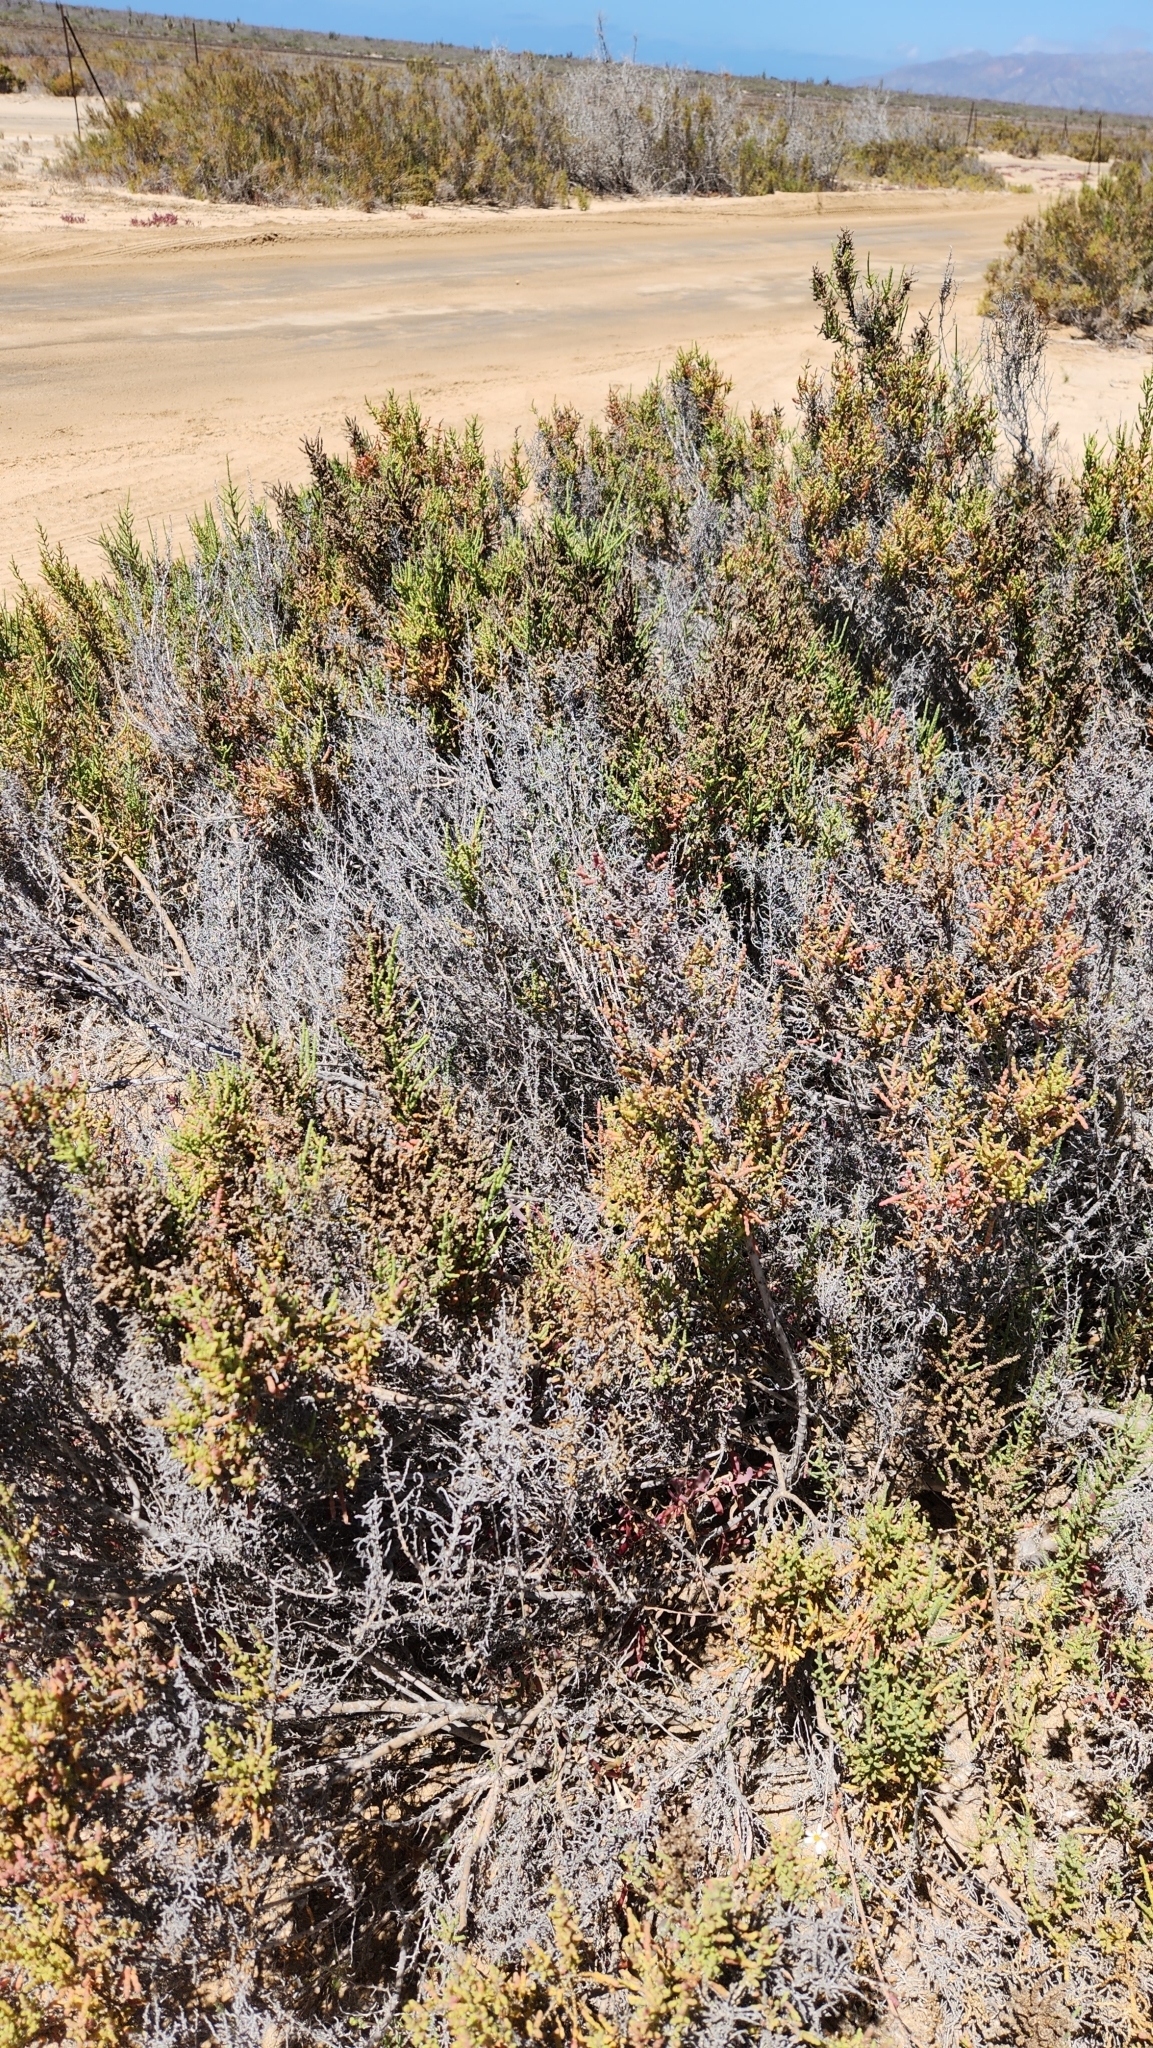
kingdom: Plantae
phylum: Tracheophyta
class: Magnoliopsida
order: Caryophyllales
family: Amaranthaceae
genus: Allenrolfea
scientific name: Allenrolfea occidentalis
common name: Iodine-bush
